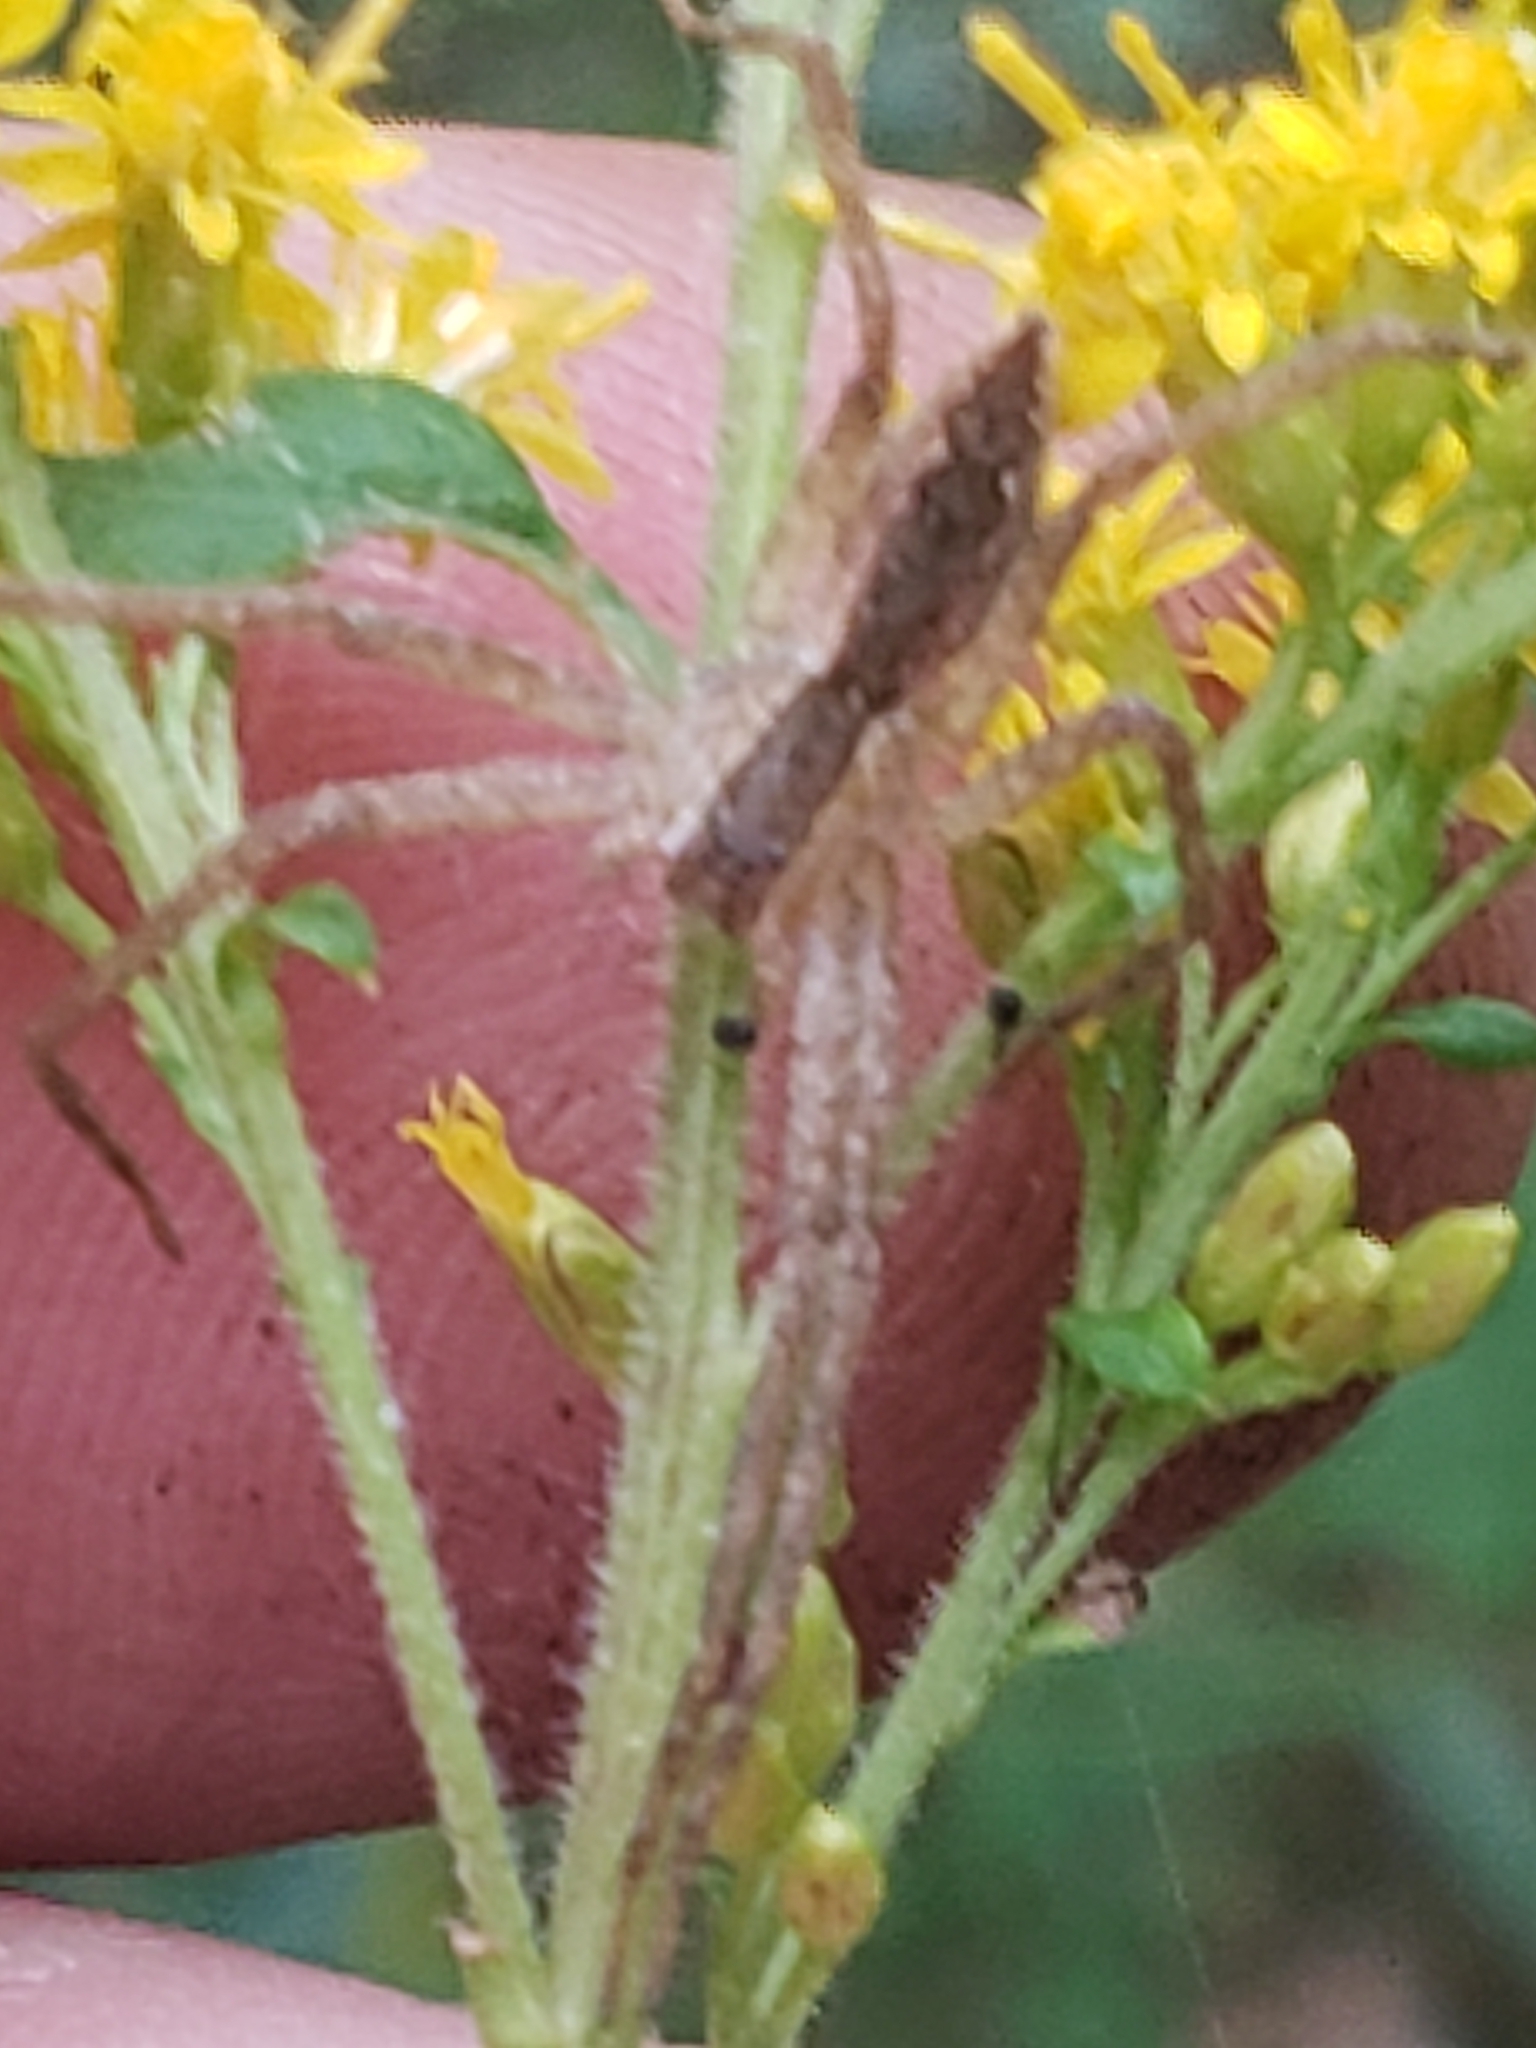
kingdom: Animalia
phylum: Arthropoda
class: Arachnida
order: Araneae
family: Pisauridae
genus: Pisaurina
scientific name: Pisaurina mira
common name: American nursery web spider
